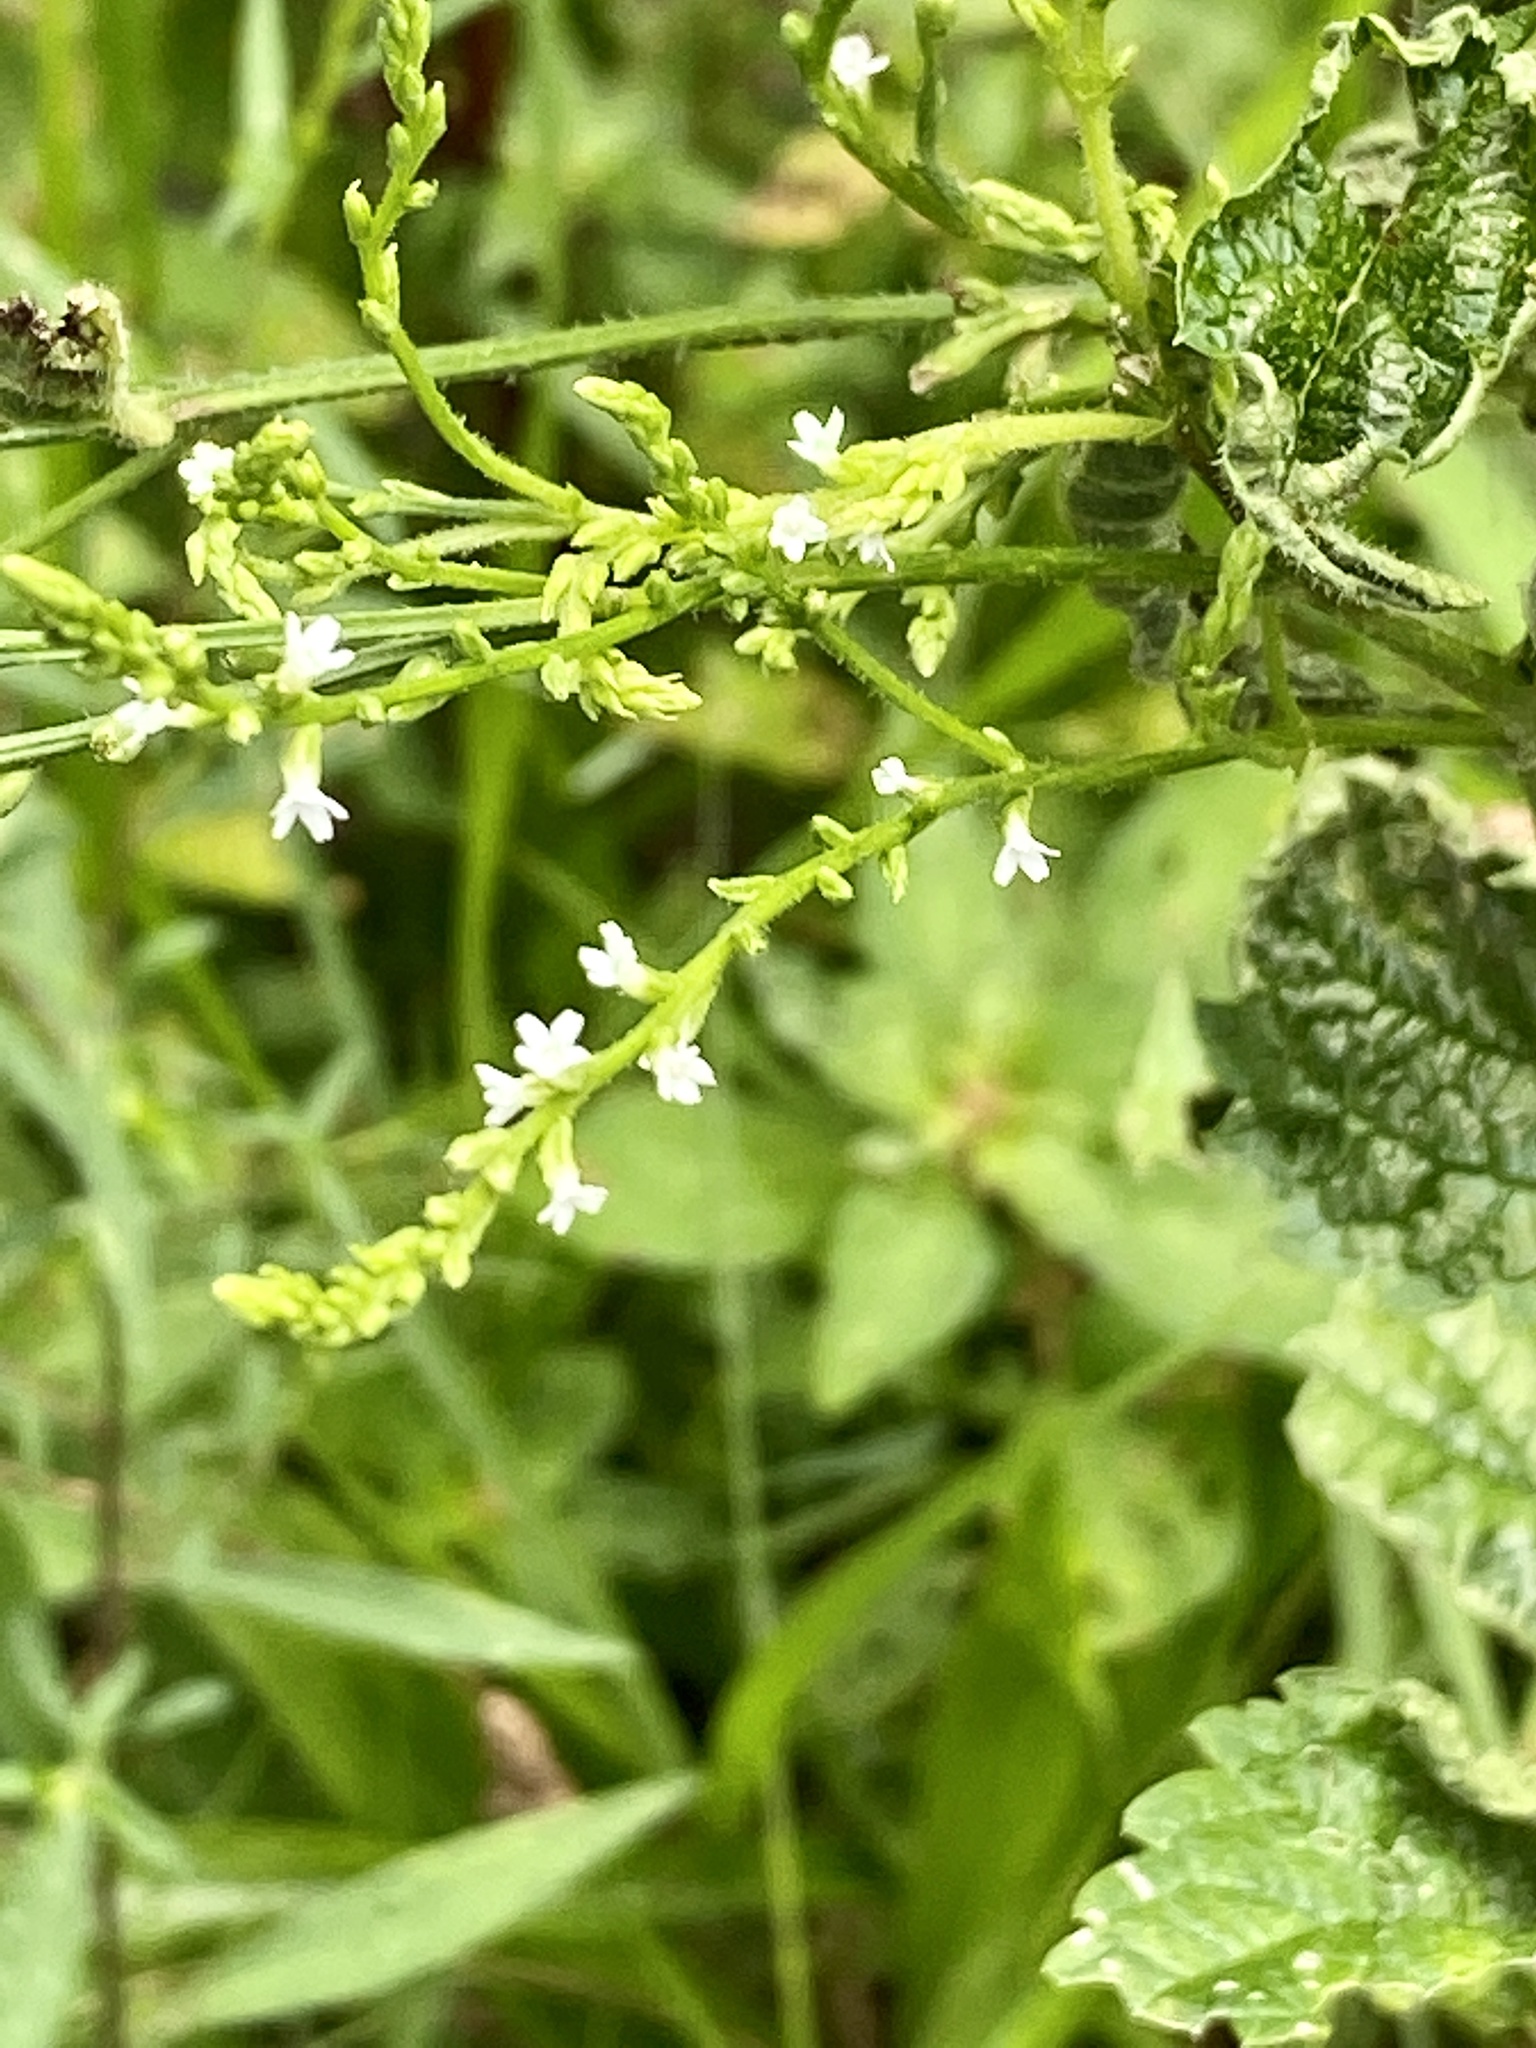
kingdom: Plantae
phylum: Tracheophyta
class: Magnoliopsida
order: Lamiales
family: Verbenaceae
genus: Verbena
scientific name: Verbena urticifolia
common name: Nettle-leaved vervain
